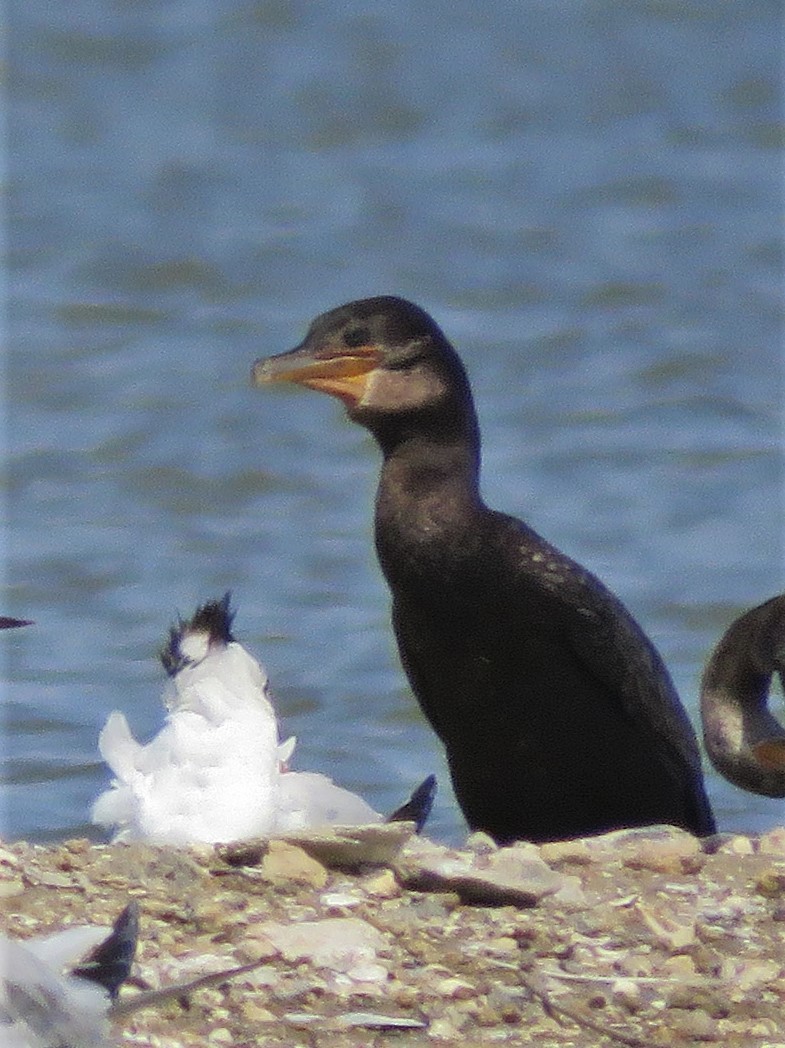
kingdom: Animalia
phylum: Chordata
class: Aves
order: Suliformes
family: Phalacrocoracidae
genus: Phalacrocorax
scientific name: Phalacrocorax brasilianus
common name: Neotropic cormorant
